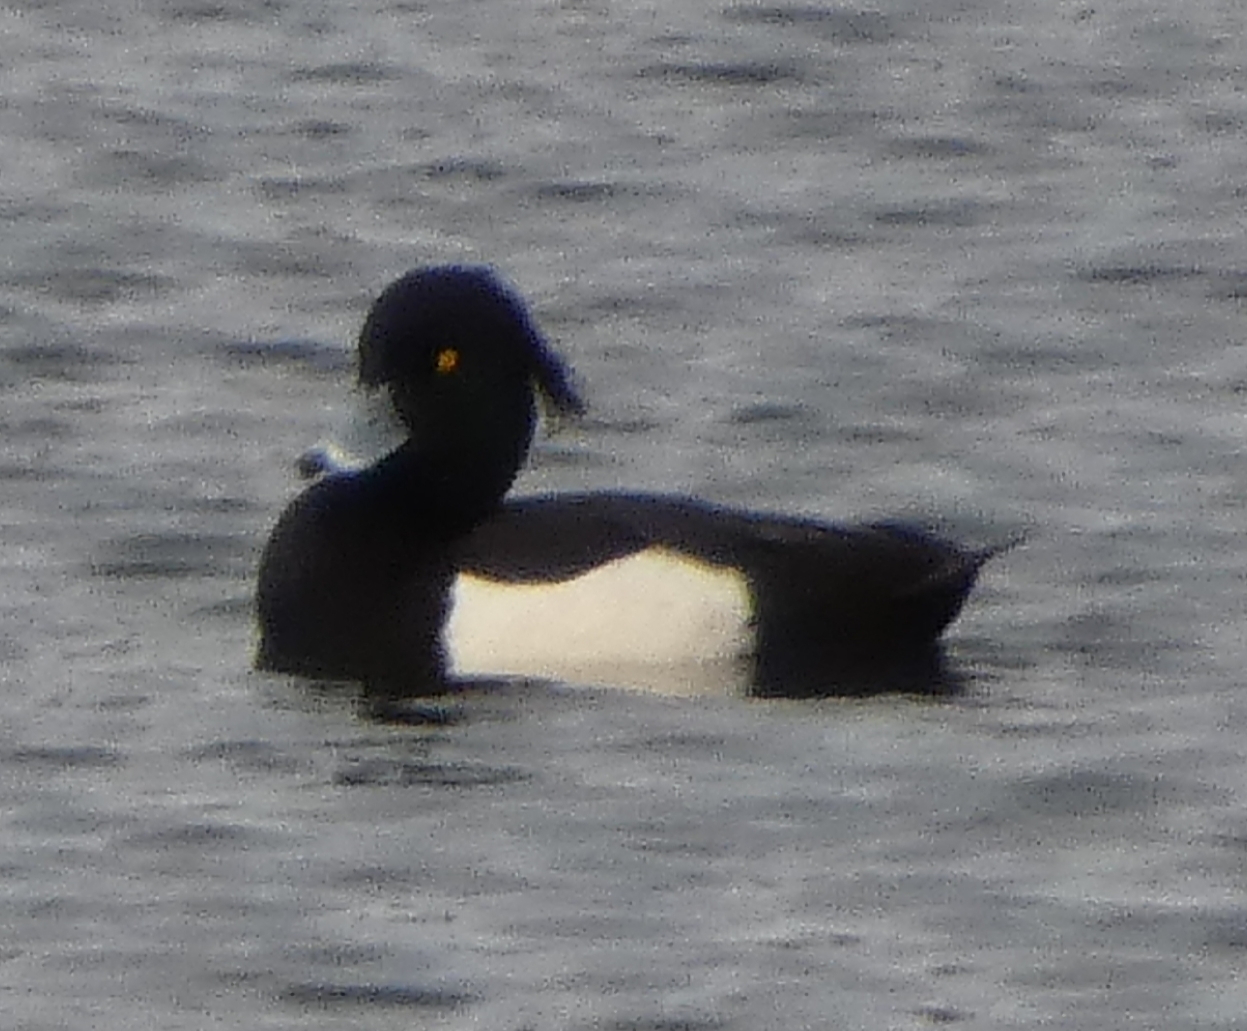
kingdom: Animalia
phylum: Chordata
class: Aves
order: Anseriformes
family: Anatidae
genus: Aythya
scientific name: Aythya fuligula
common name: Tufted duck
